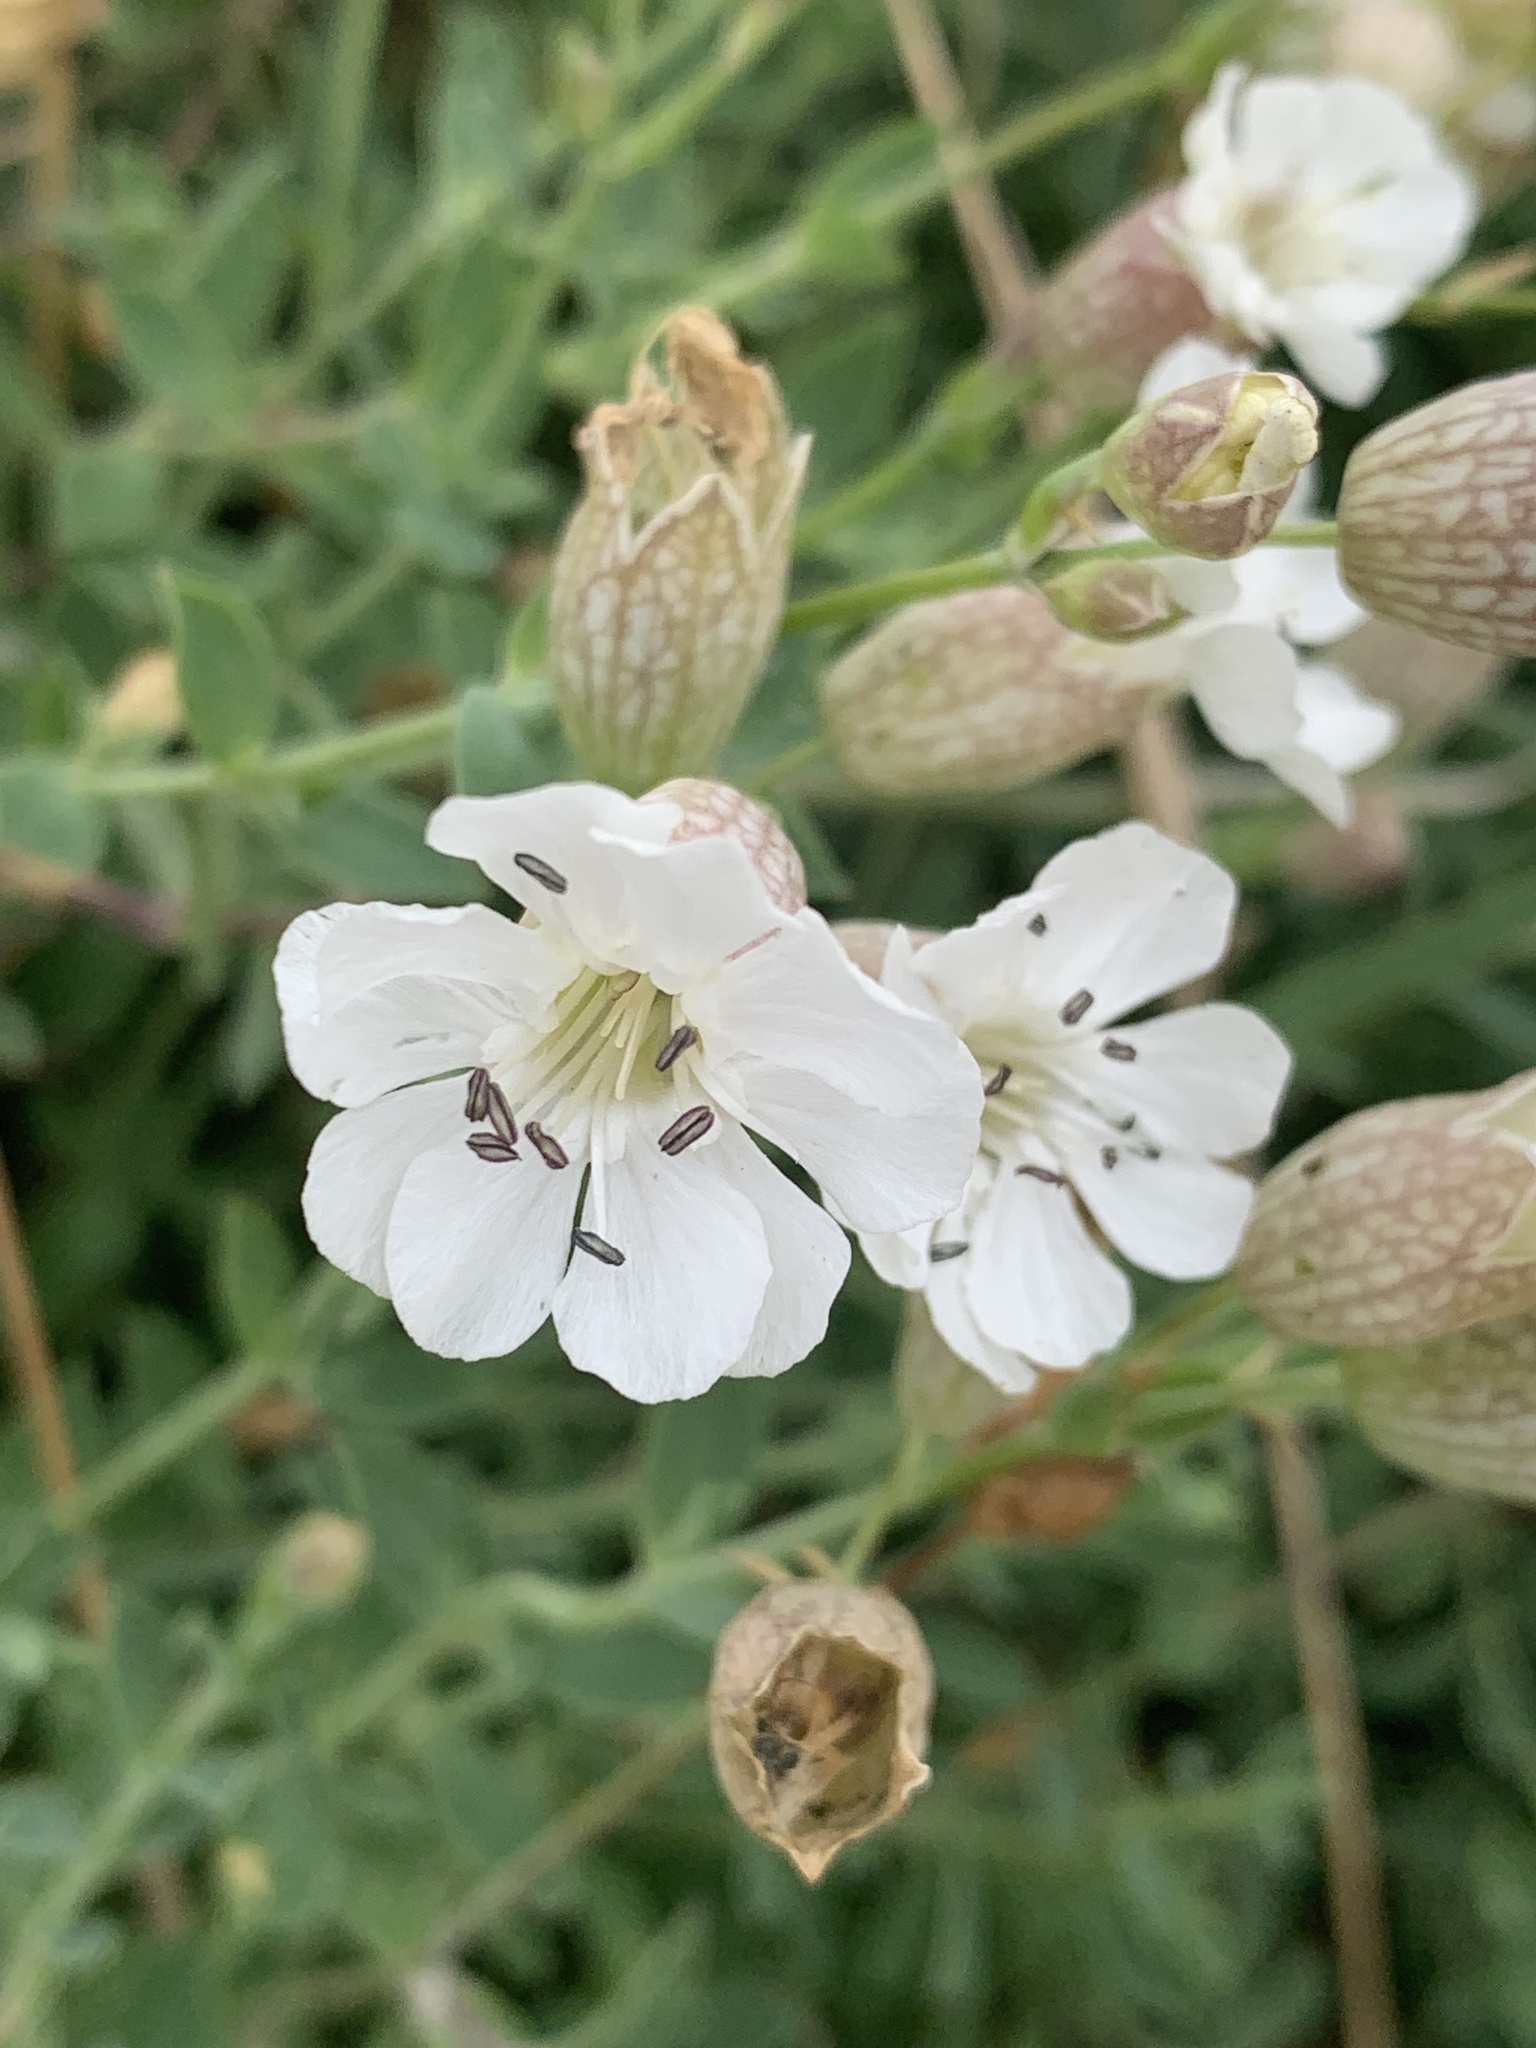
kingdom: Plantae
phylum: Tracheophyta
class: Magnoliopsida
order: Caryophyllales
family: Caryophyllaceae
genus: Silene
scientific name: Silene uniflora
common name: Sea campion
